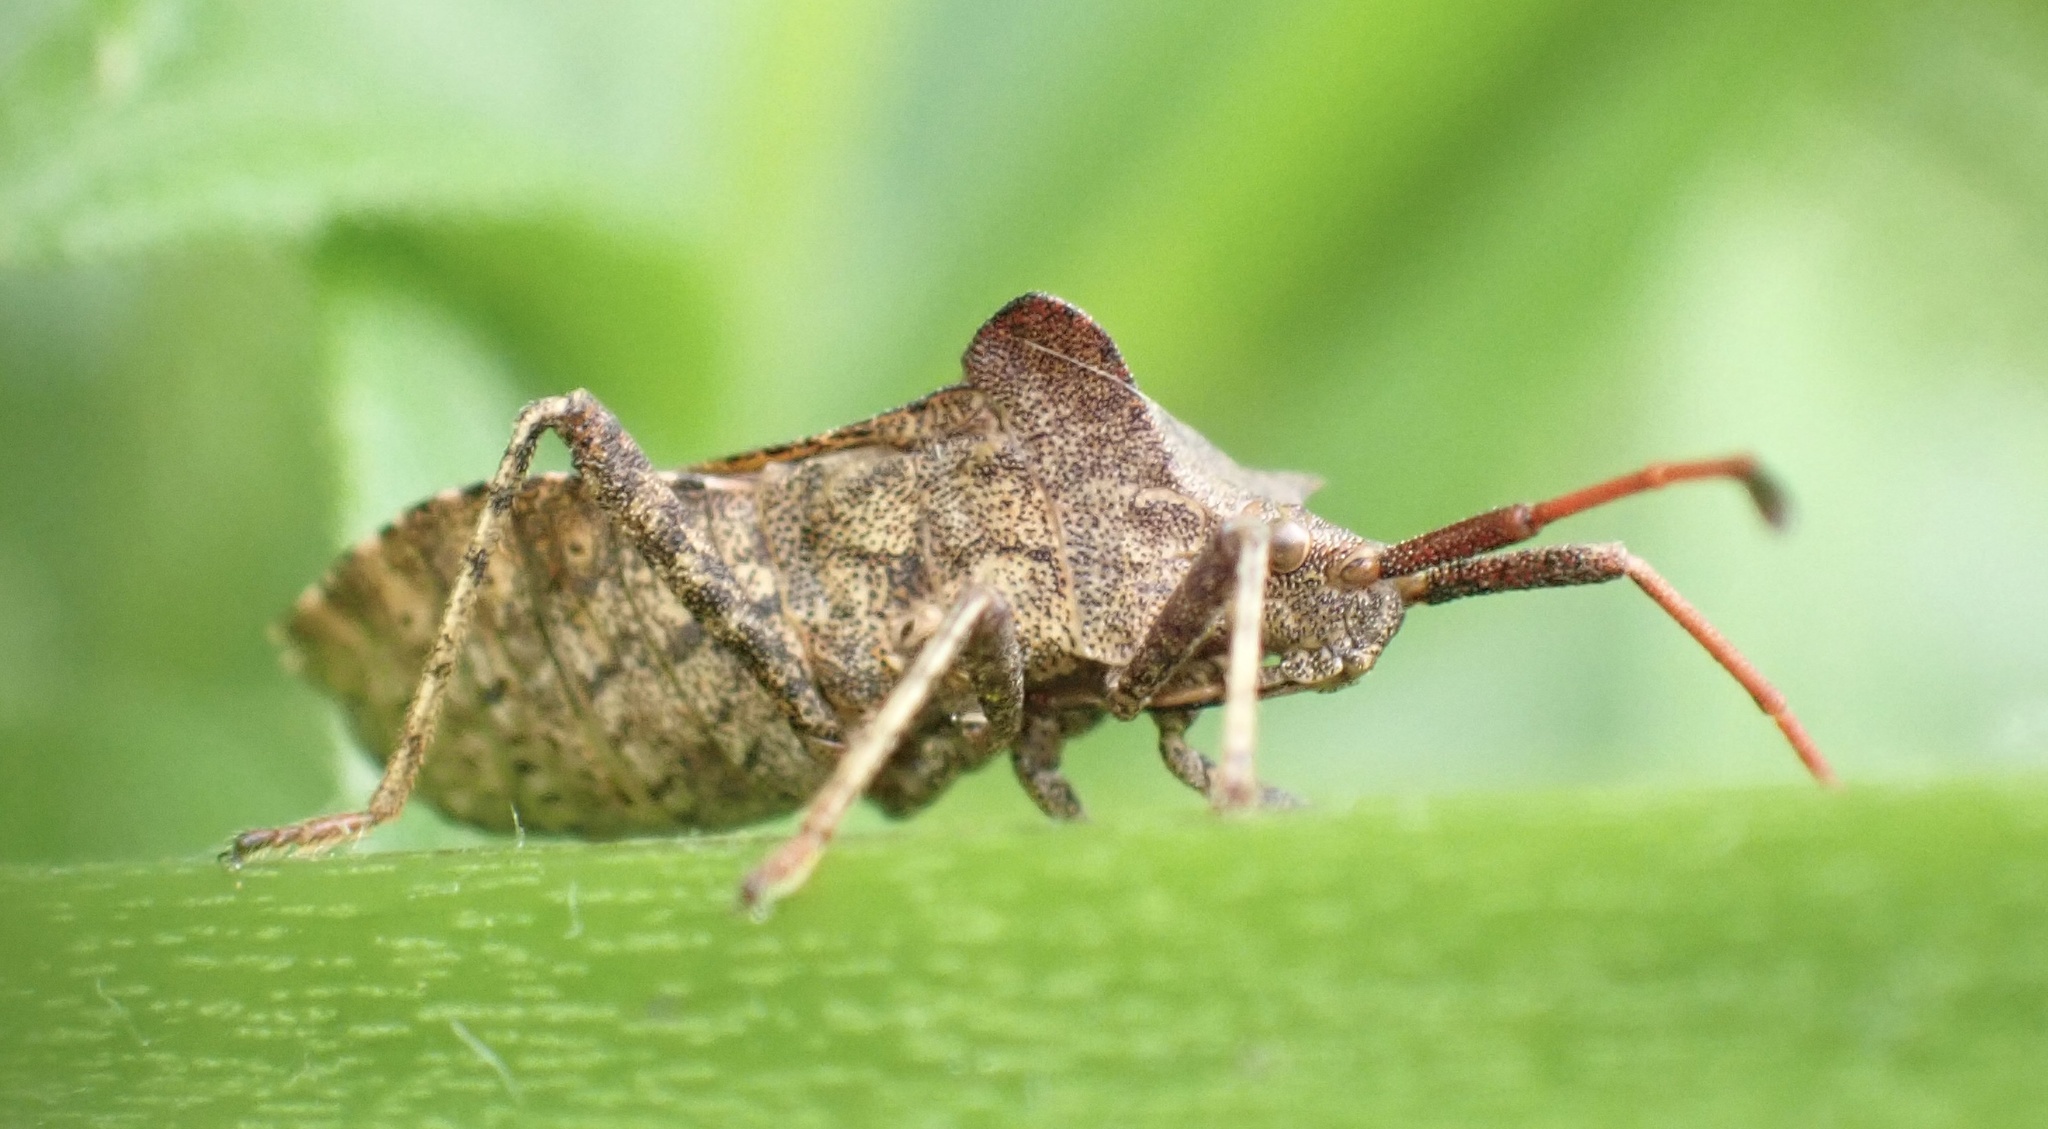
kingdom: Animalia
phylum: Arthropoda
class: Insecta
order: Hemiptera
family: Coreidae
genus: Coreus
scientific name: Coreus marginatus
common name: Dock bug
